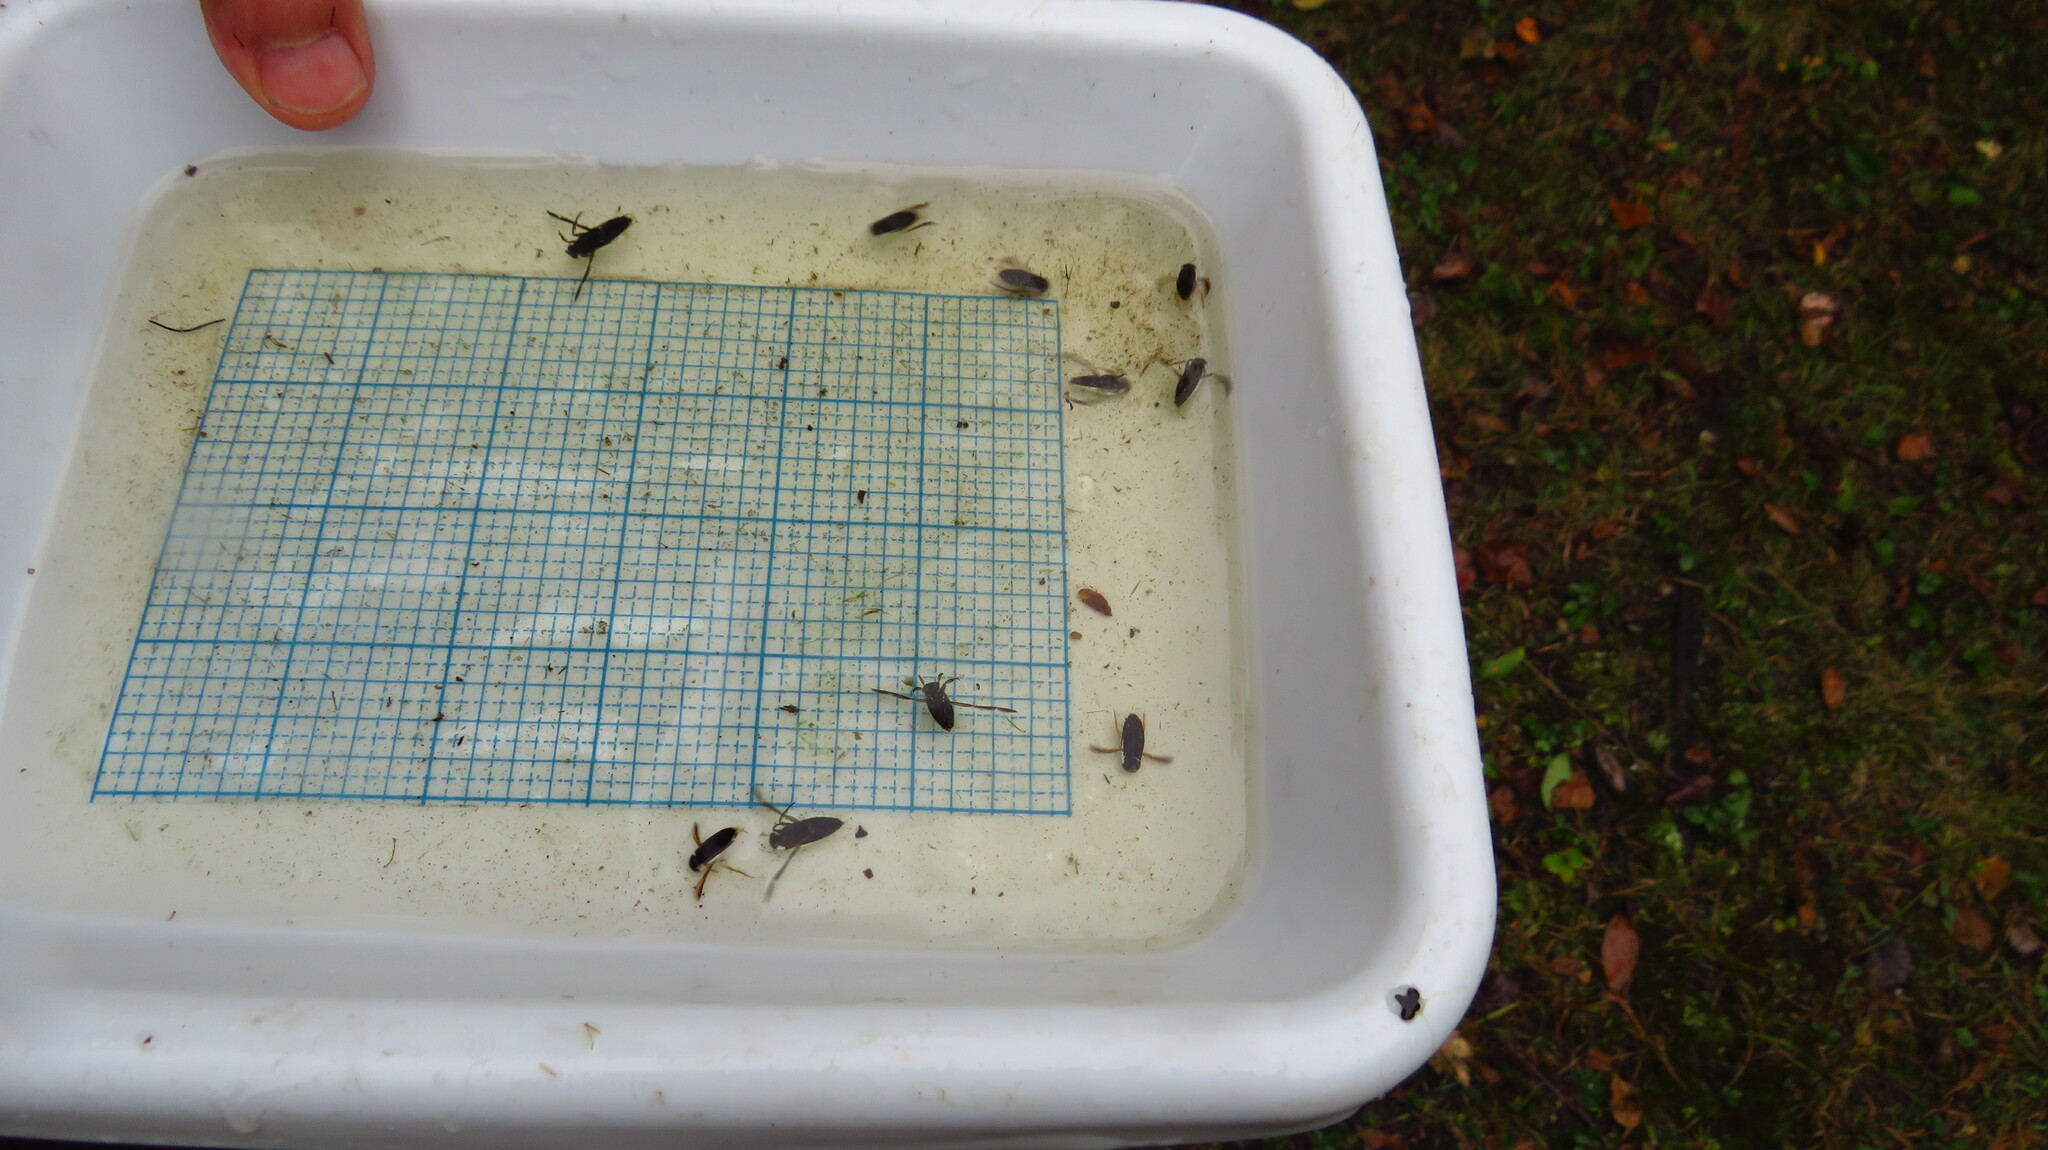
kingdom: Animalia
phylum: Arthropoda
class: Insecta
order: Hemiptera
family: Notonectidae
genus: Notonecta
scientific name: Notonecta
